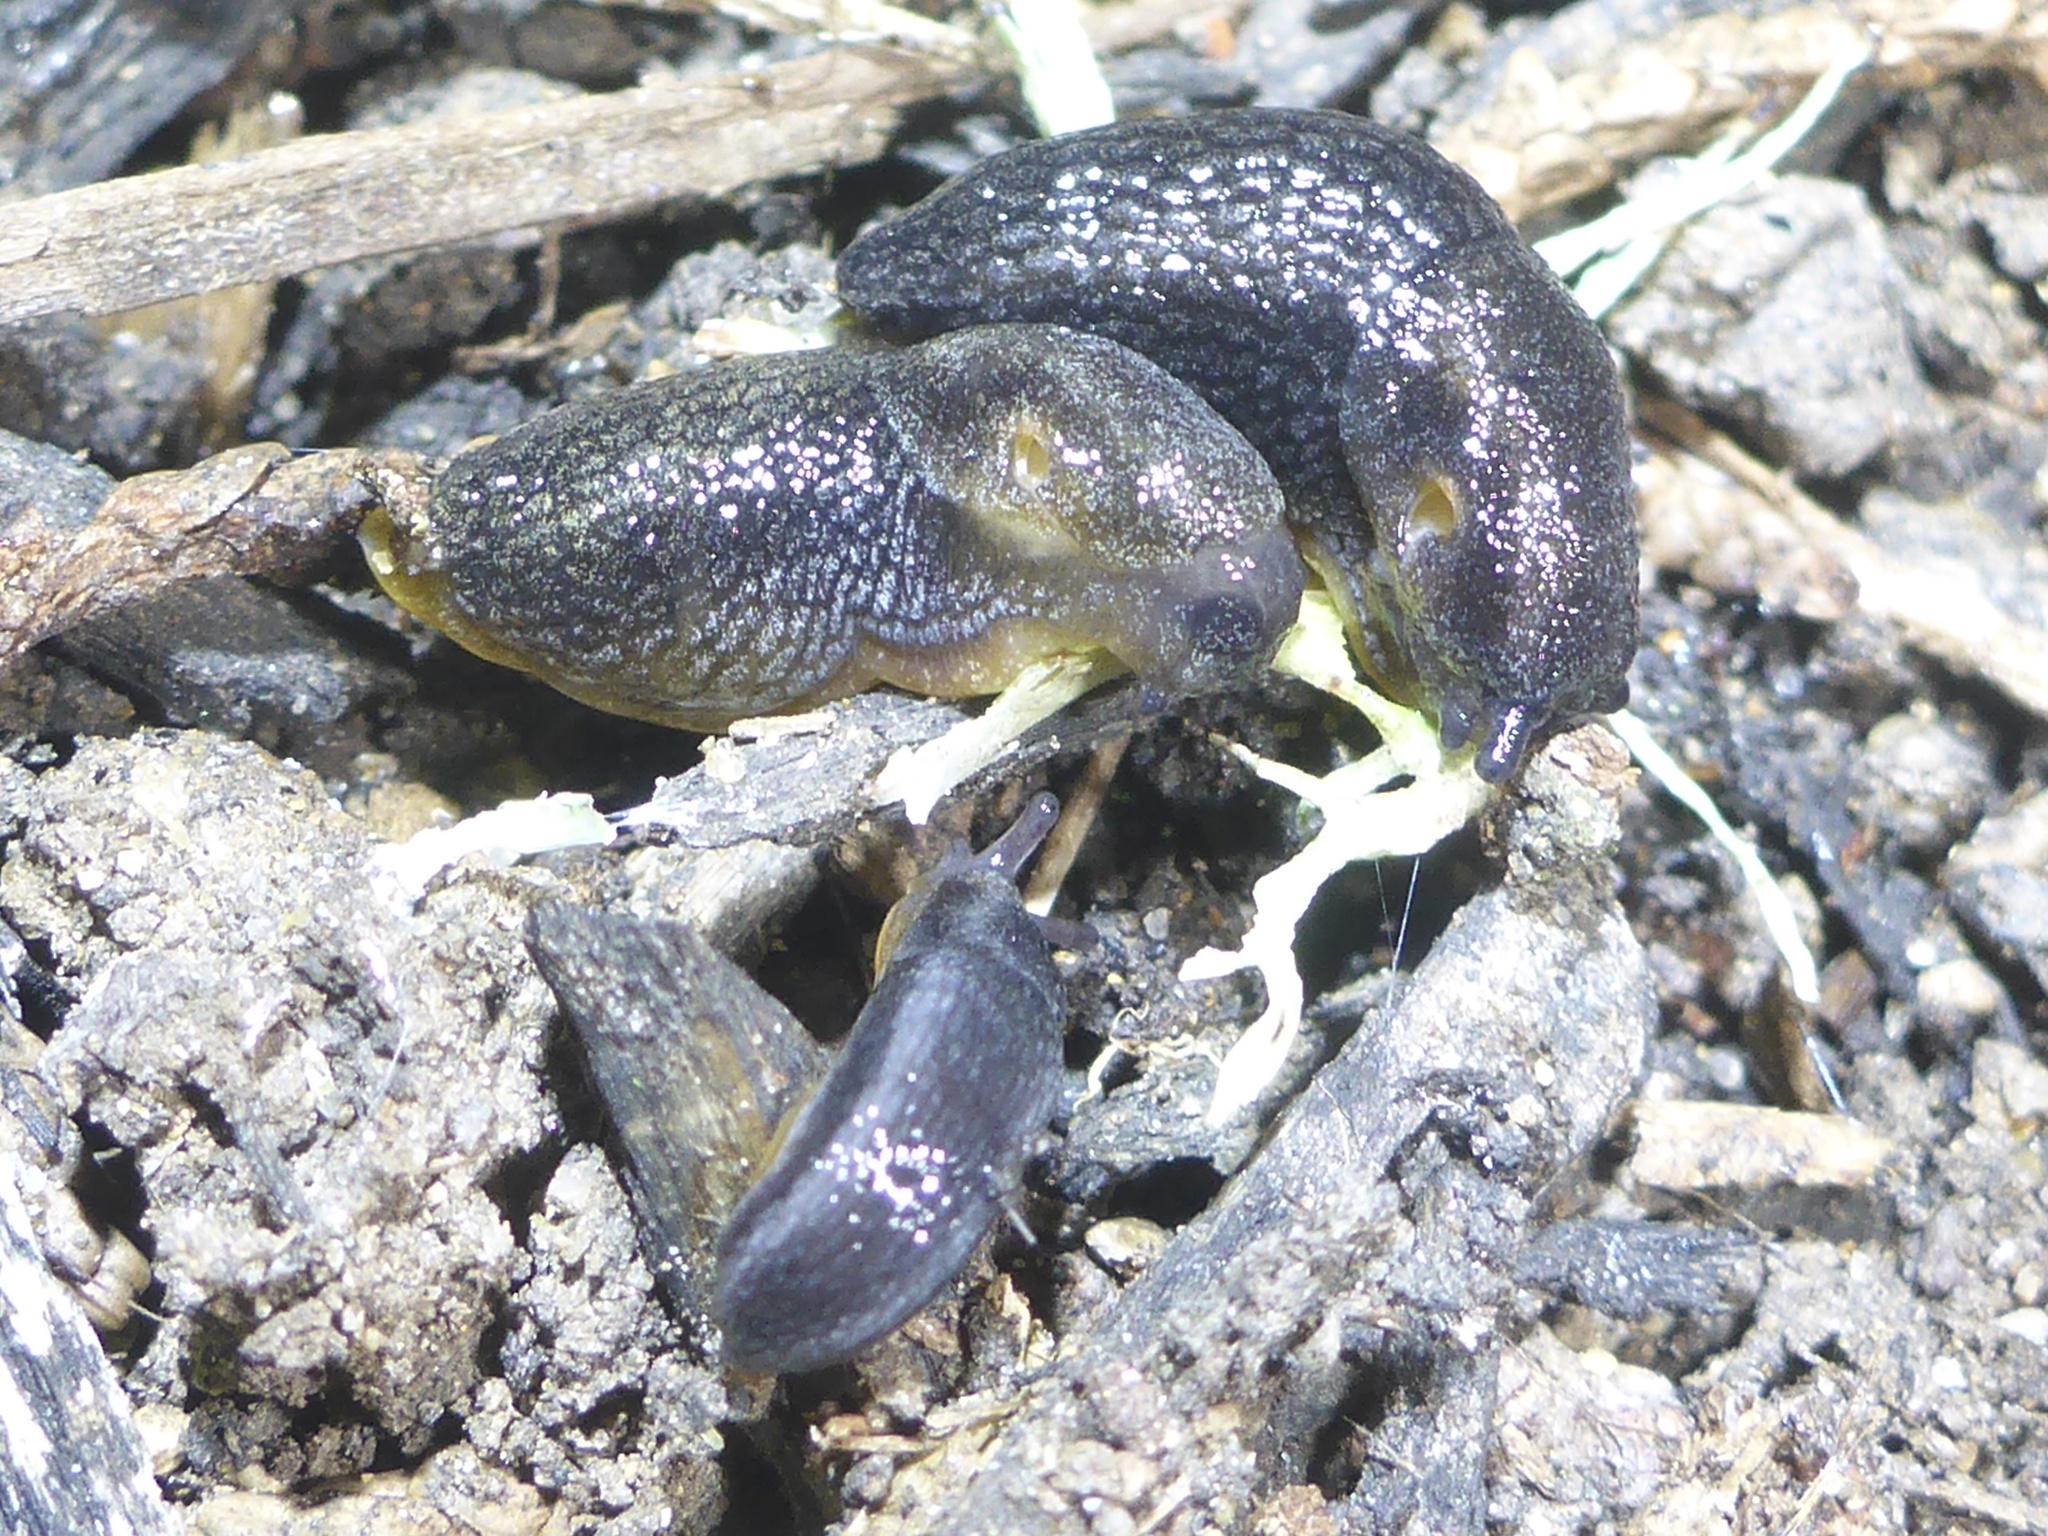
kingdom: Animalia
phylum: Mollusca
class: Gastropoda
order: Stylommatophora
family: Arionidae
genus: Arion
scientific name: Arion hortensis
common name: Garden arion
